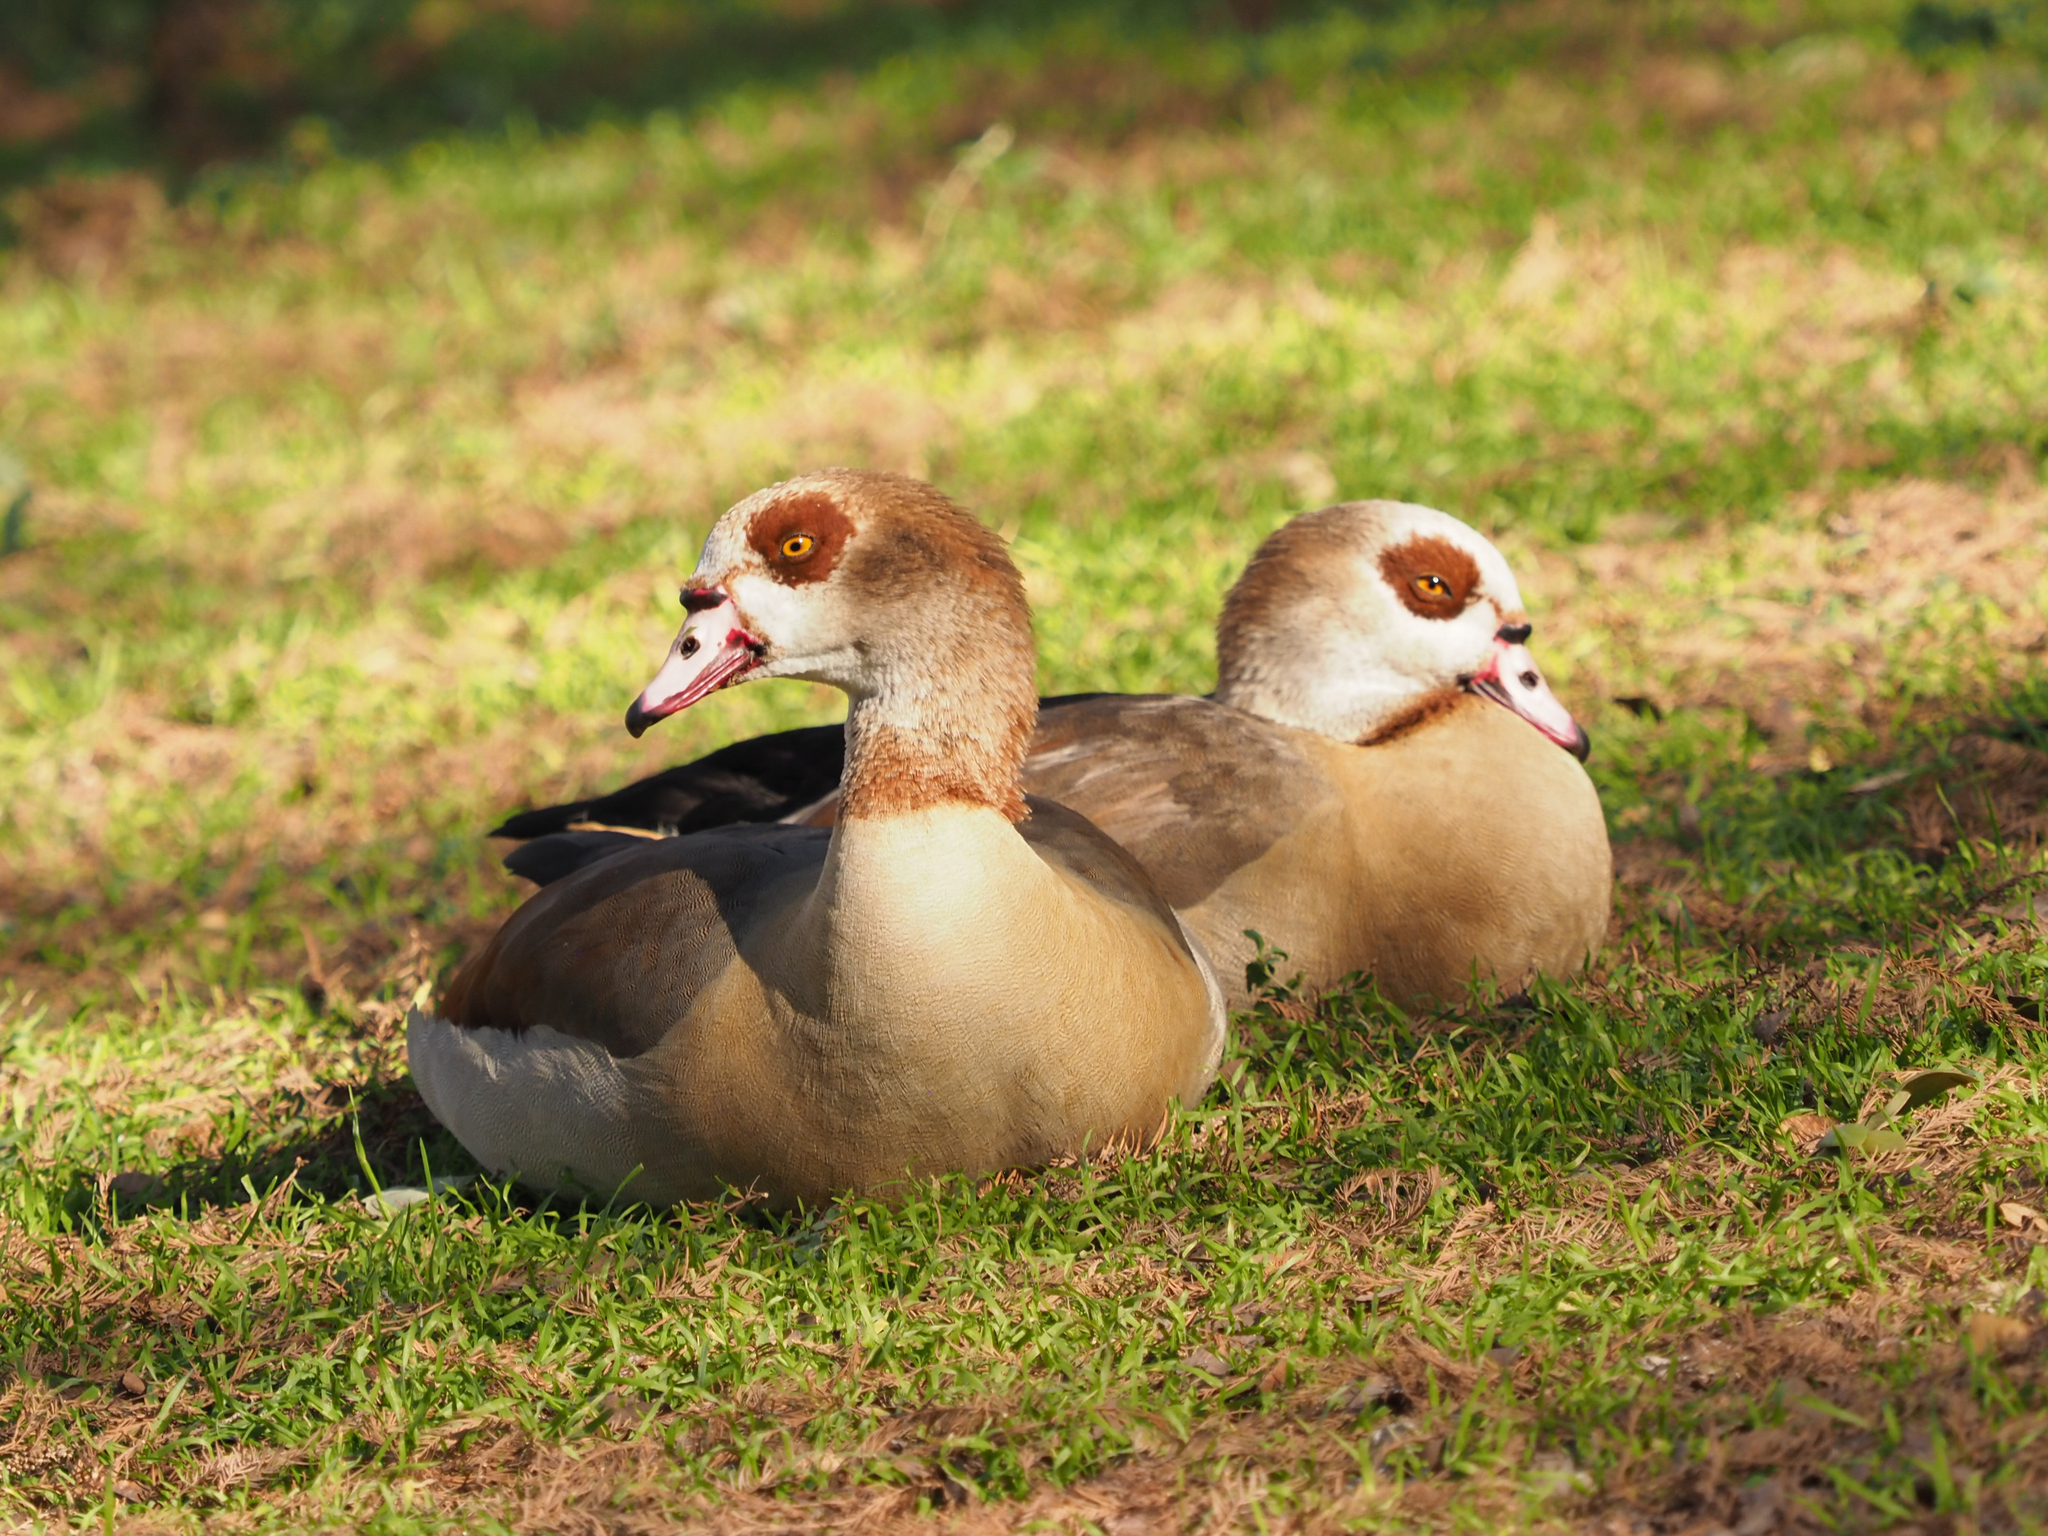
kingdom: Animalia
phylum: Chordata
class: Aves
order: Anseriformes
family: Anatidae
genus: Alopochen
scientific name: Alopochen aegyptiaca
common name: Egyptian goose
